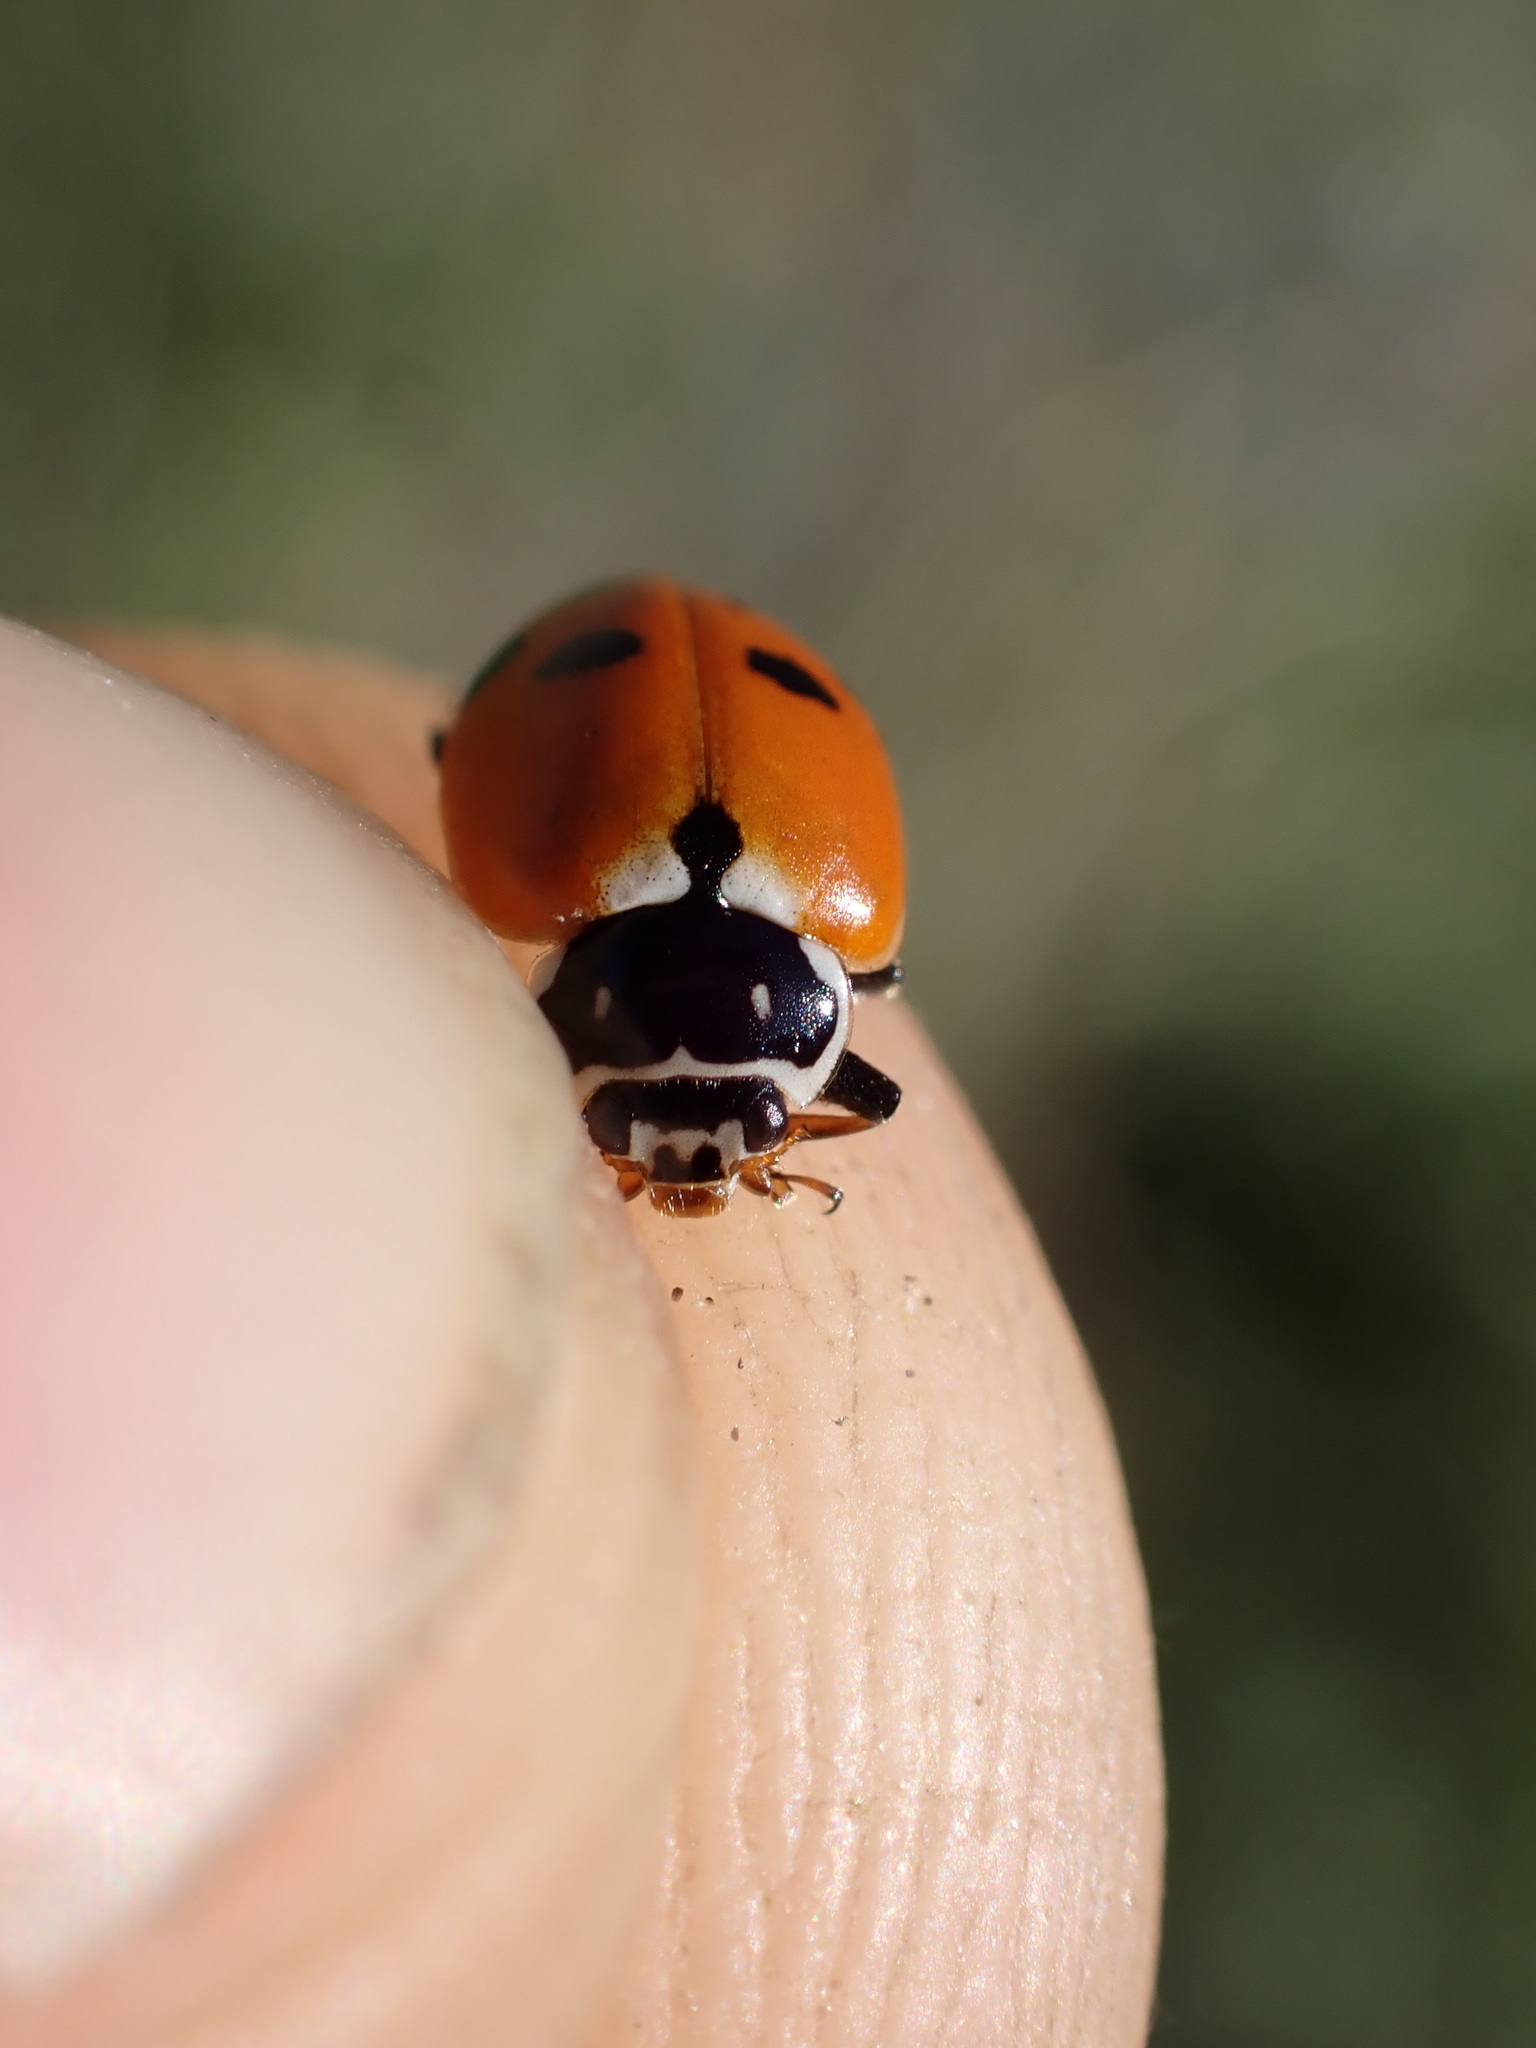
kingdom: Animalia
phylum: Arthropoda
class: Insecta
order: Coleoptera
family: Coccinellidae
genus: Hippodamia
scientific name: Hippodamia variegata
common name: Ladybird beetle
